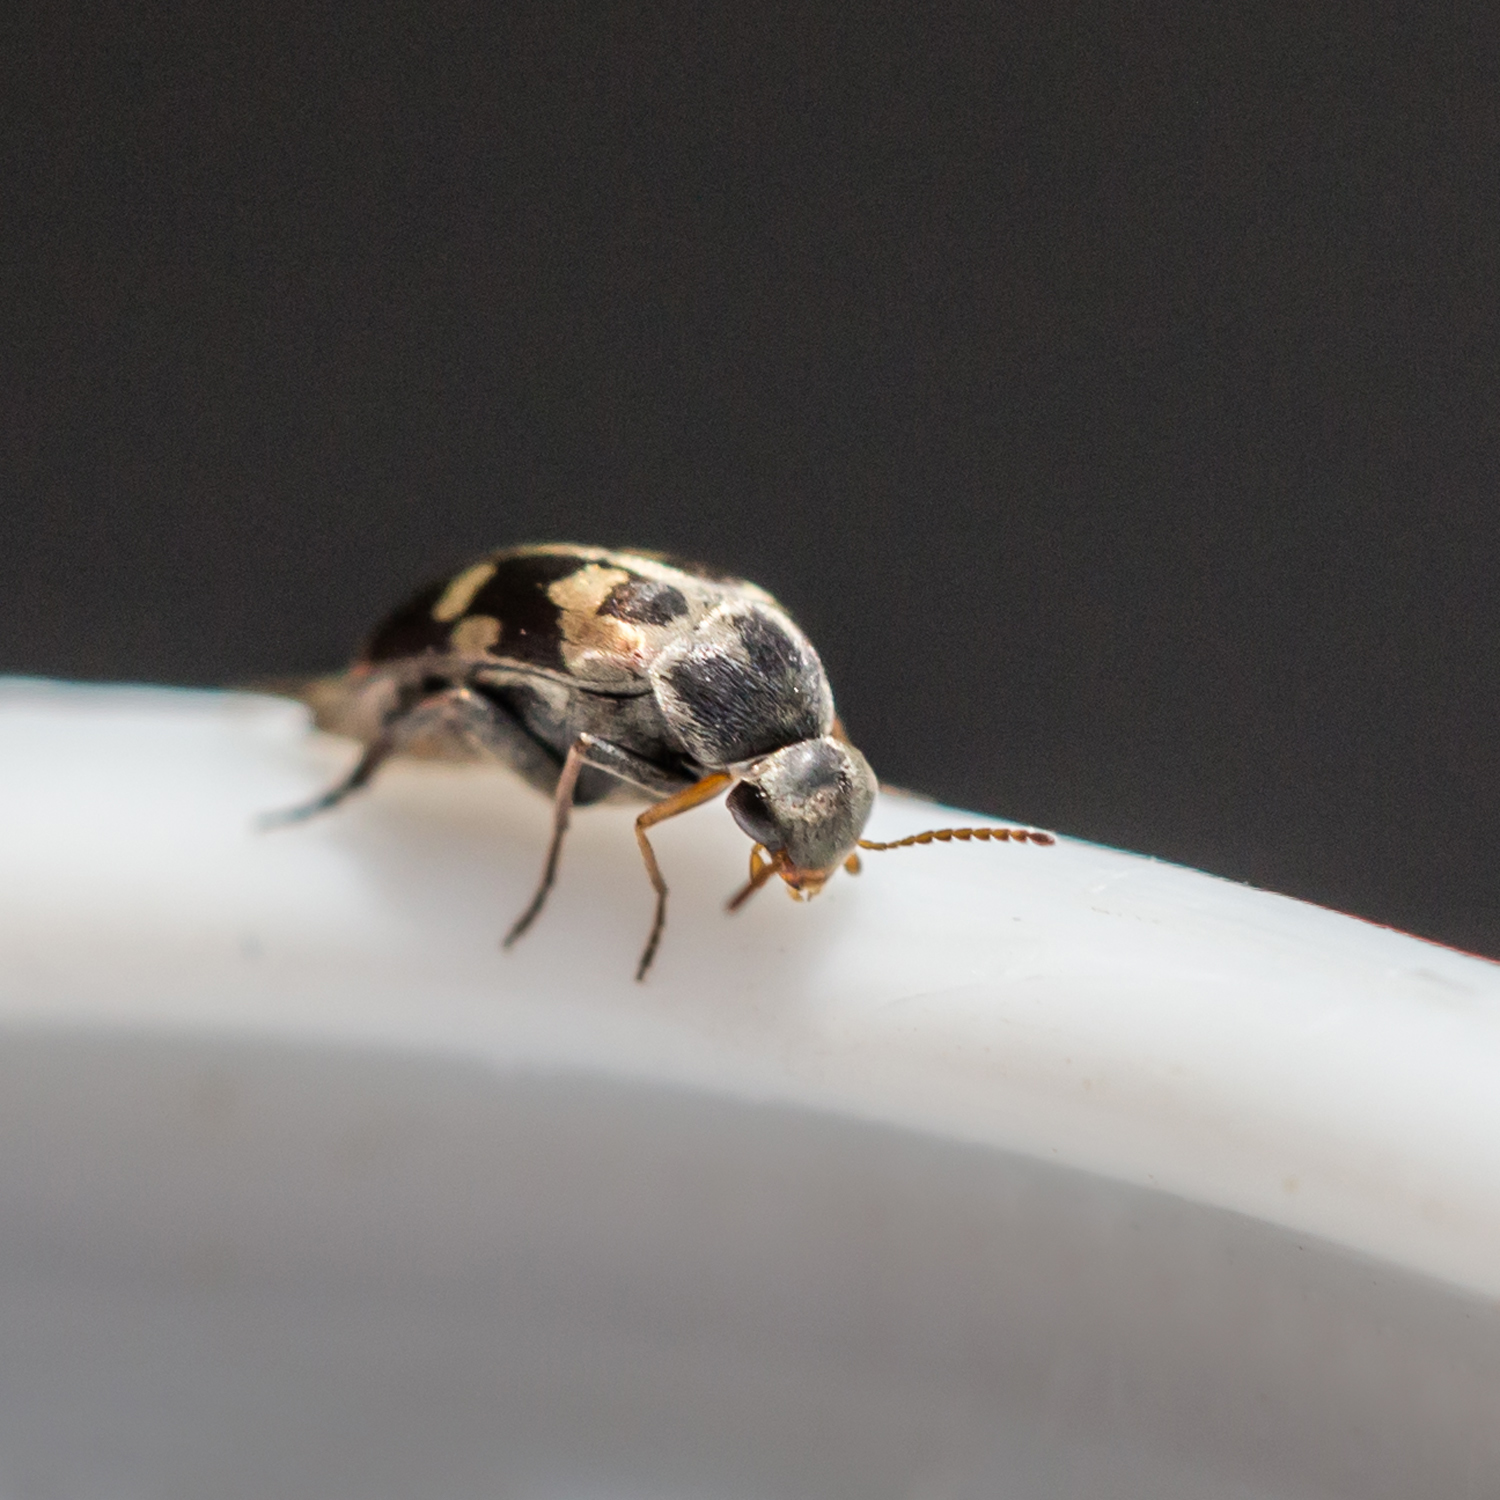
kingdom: Animalia
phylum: Arthropoda
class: Insecta
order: Coleoptera
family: Mordellidae
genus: Falsomordellistena
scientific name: Falsomordellistena pubescens
